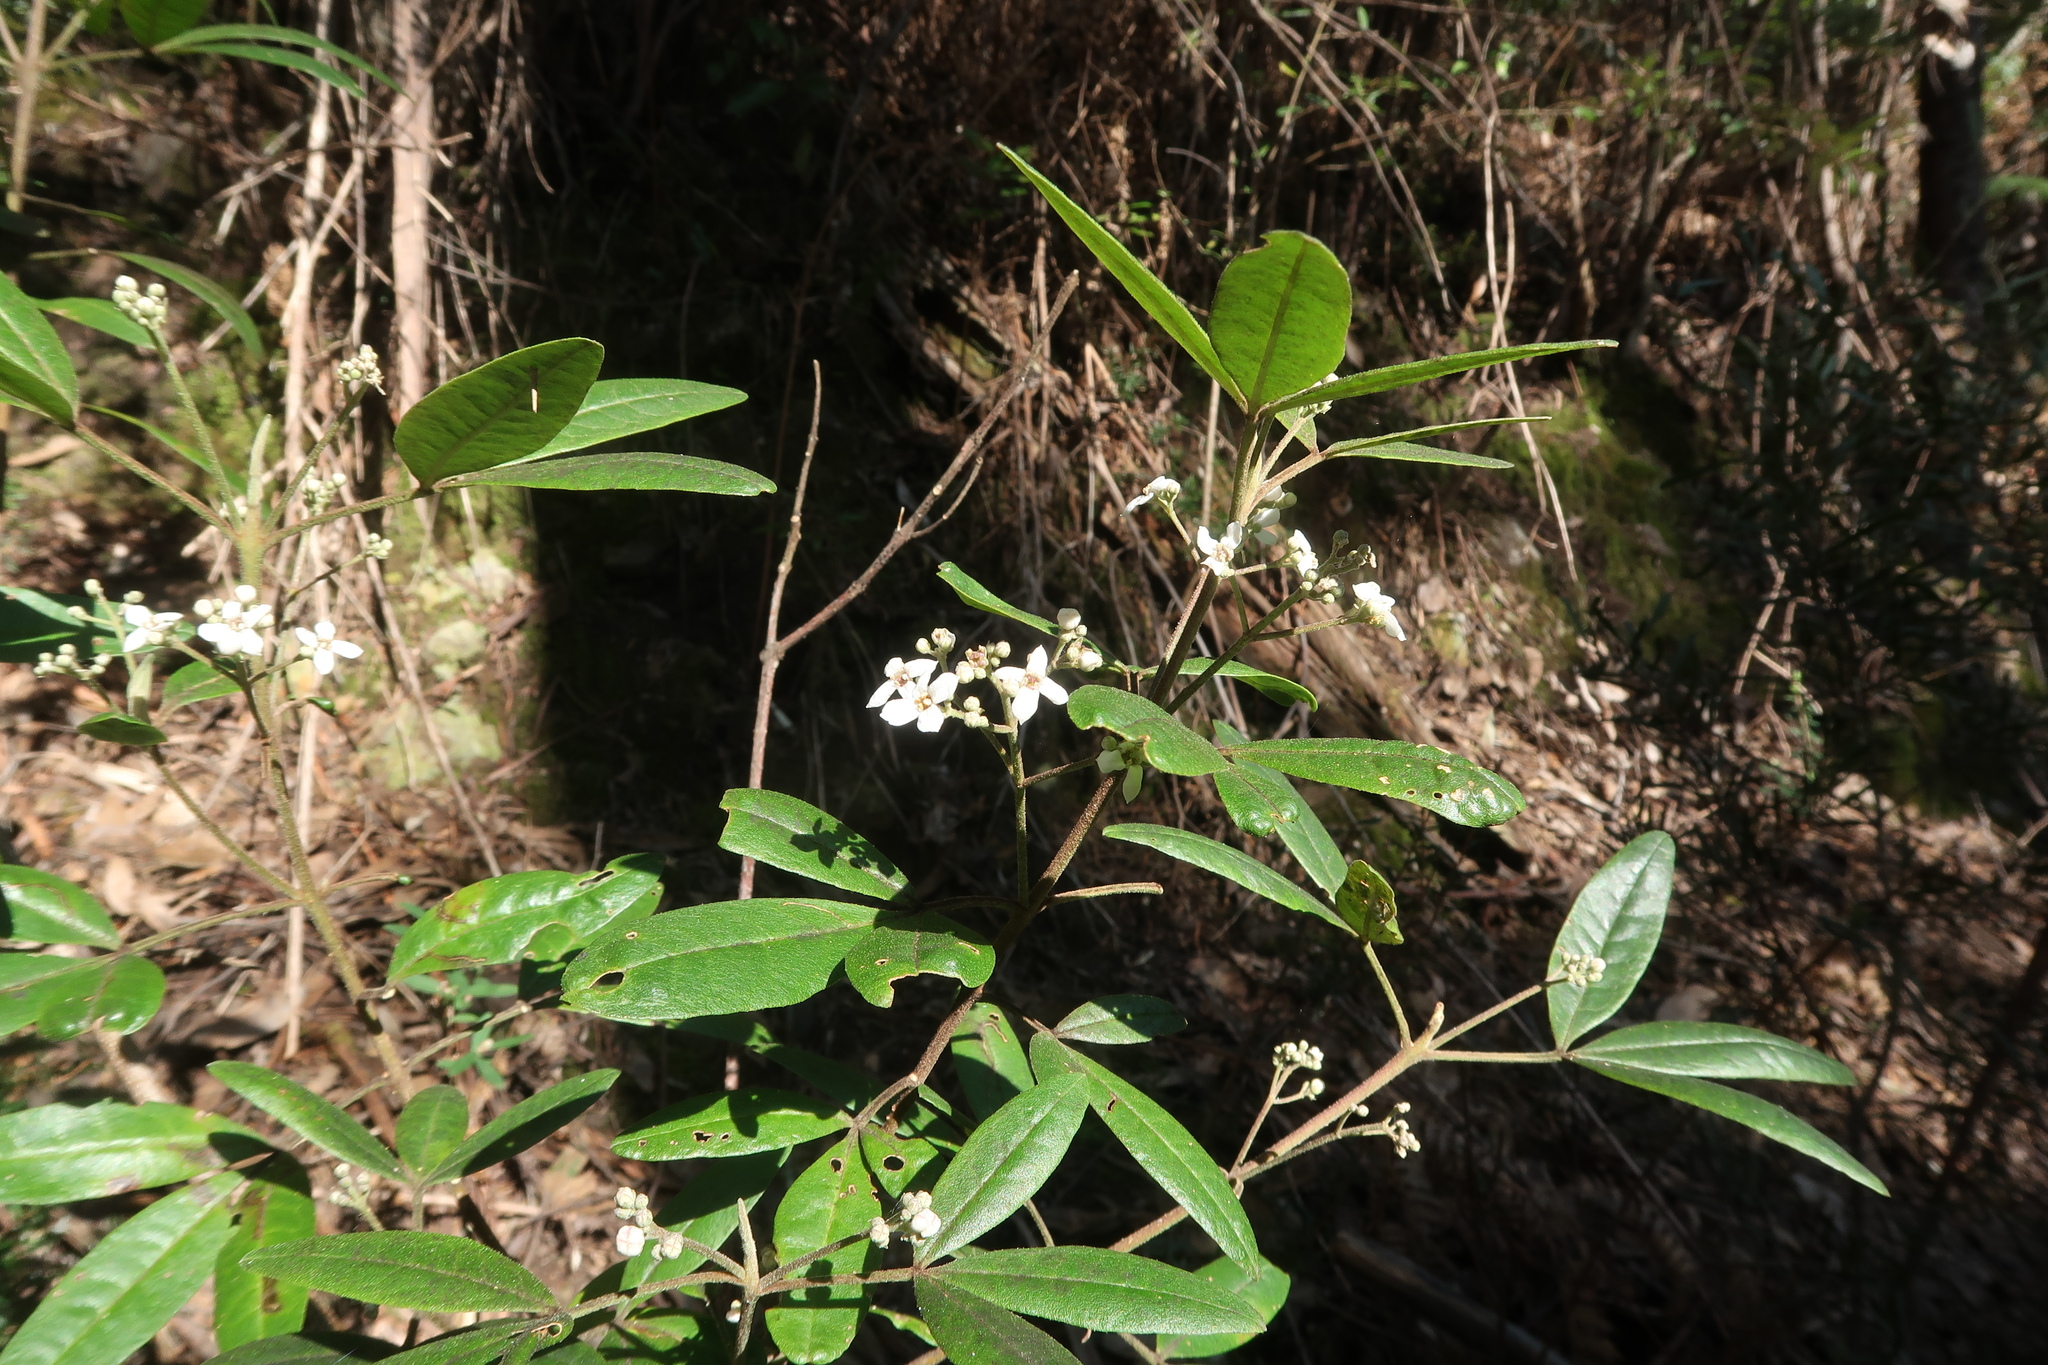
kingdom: Plantae
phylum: Tracheophyta
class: Magnoliopsida
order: Sapindales
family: Rutaceae
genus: Zieria
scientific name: Zieria arborescens
